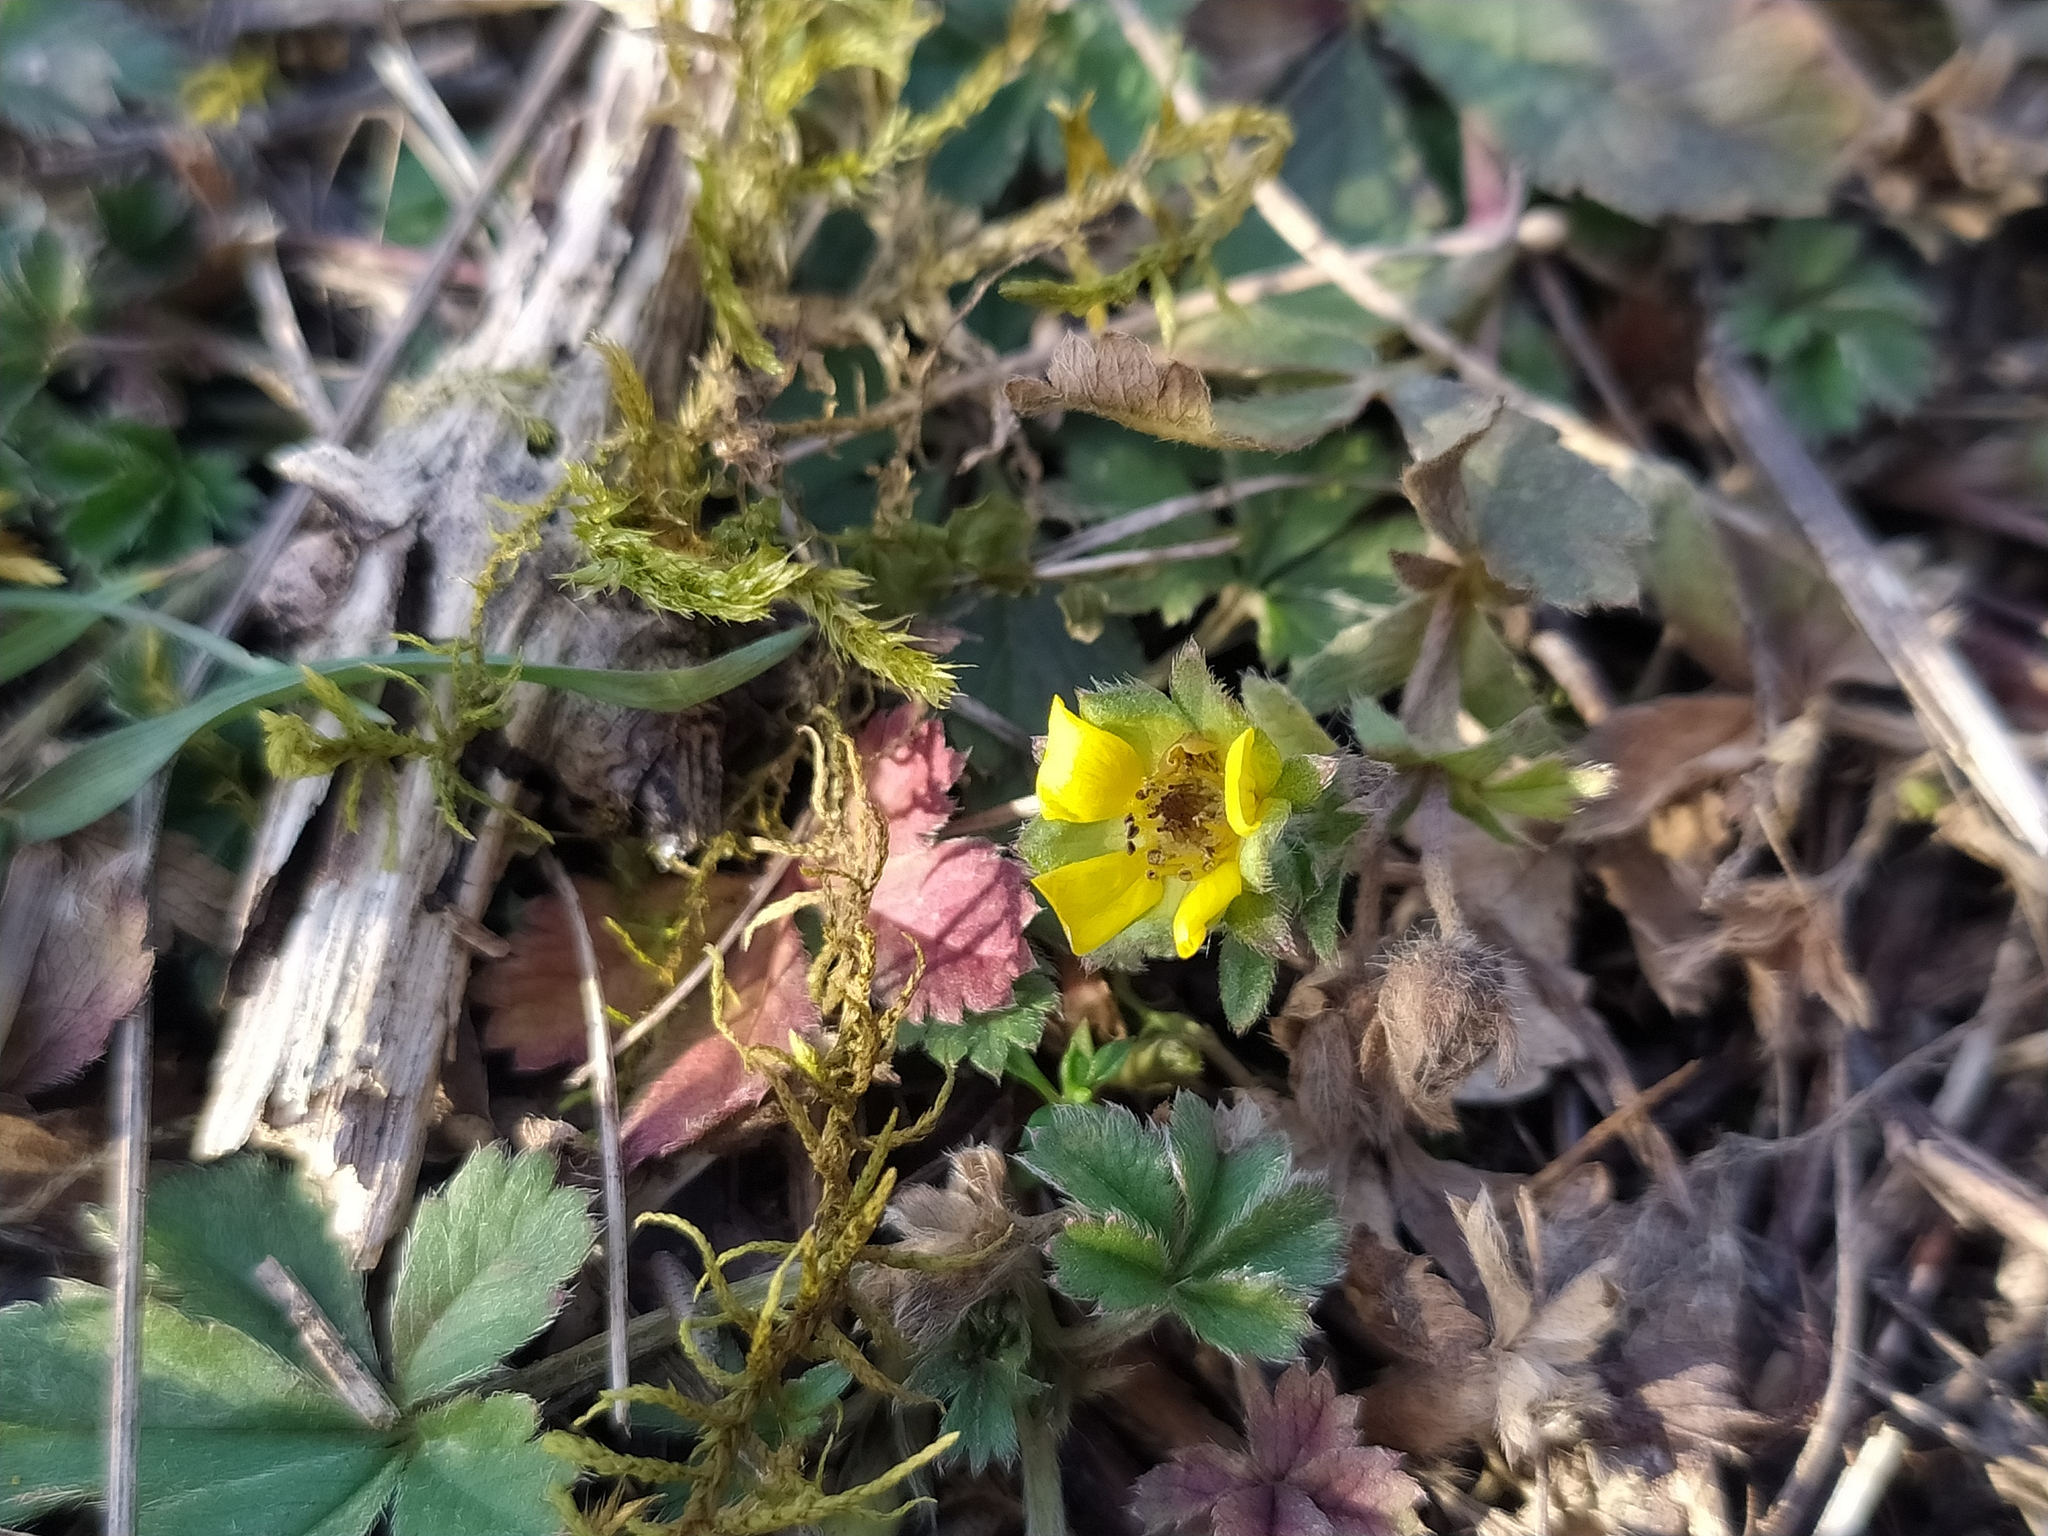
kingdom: Plantae
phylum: Tracheophyta
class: Magnoliopsida
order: Rosales
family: Rosaceae
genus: Potentilla
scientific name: Potentilla verna
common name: Spring cinquefoil
